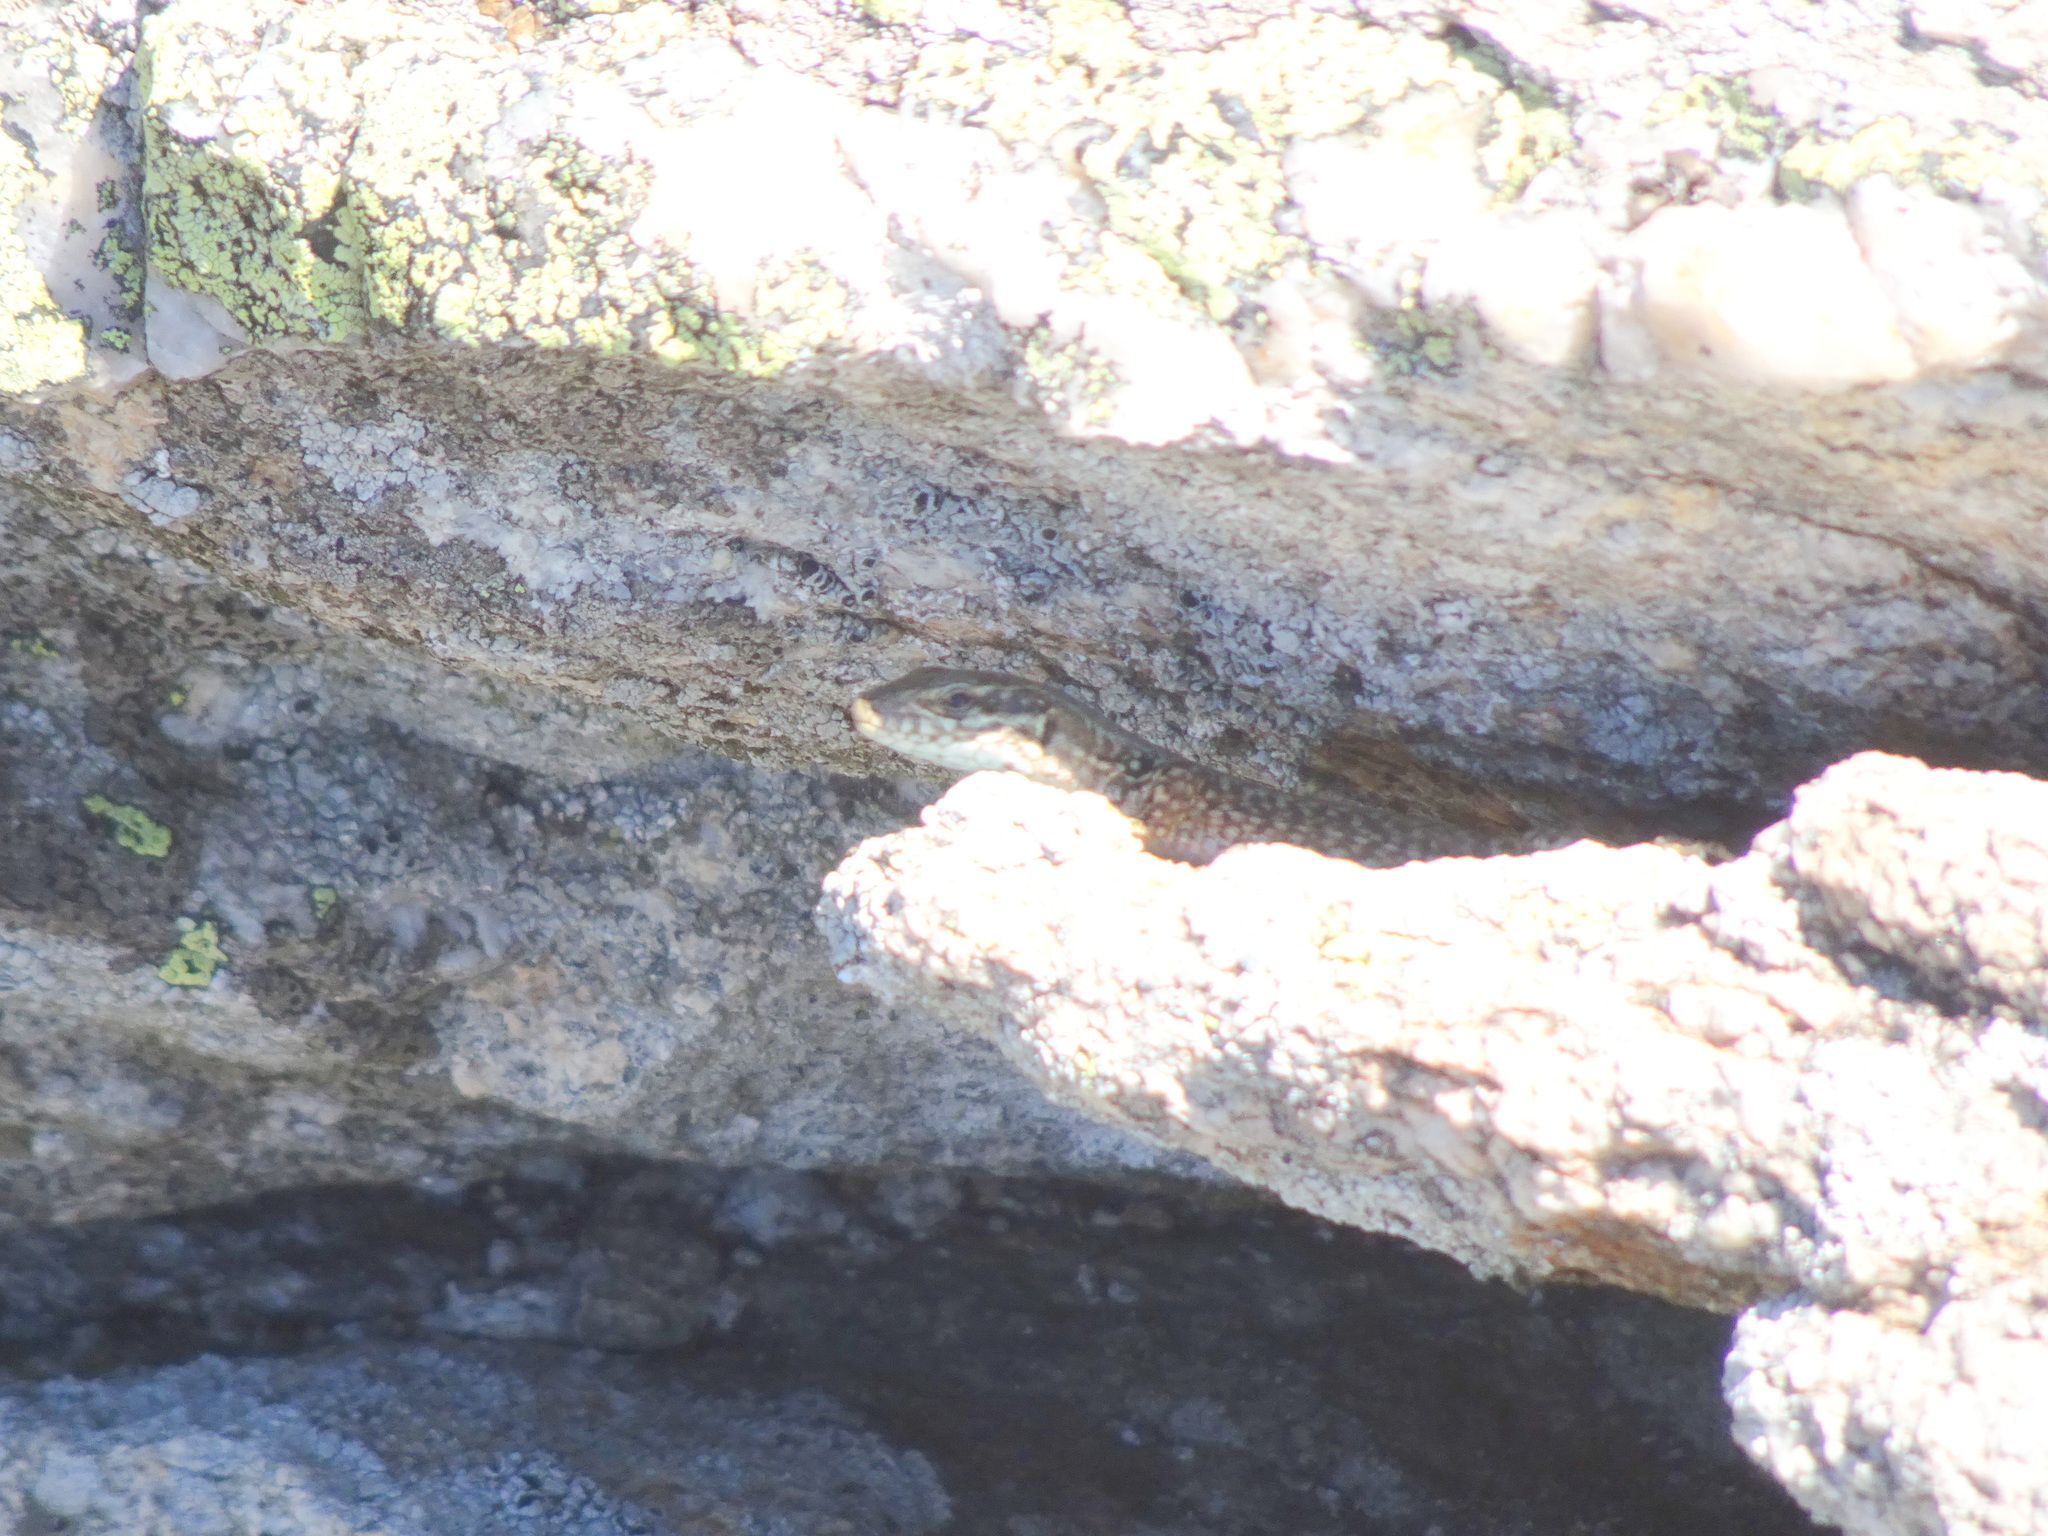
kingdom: Animalia
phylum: Chordata
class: Squamata
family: Lacertidae
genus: Podarcis
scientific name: Podarcis muralis
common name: Common wall lizard
